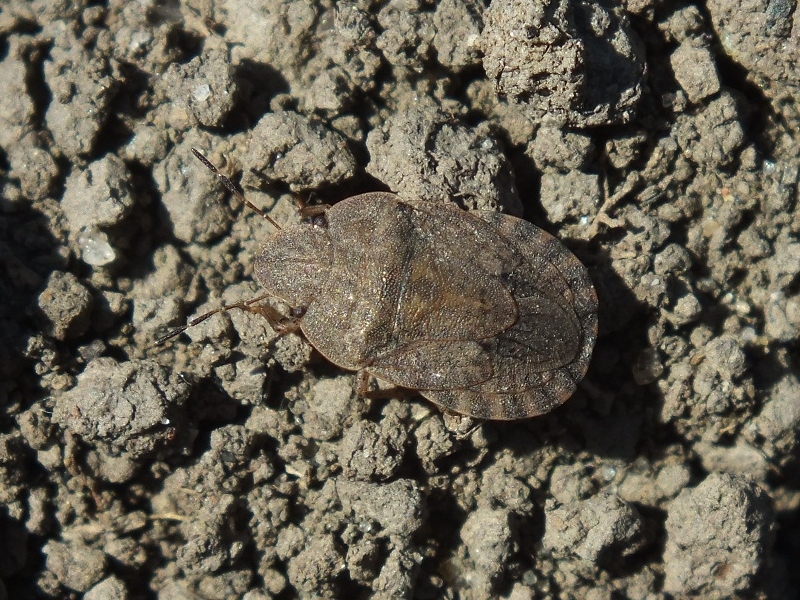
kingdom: Animalia
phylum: Arthropoda
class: Insecta
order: Hemiptera
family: Pentatomidae
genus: Sciocoris
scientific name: Sciocoris homalonotus
